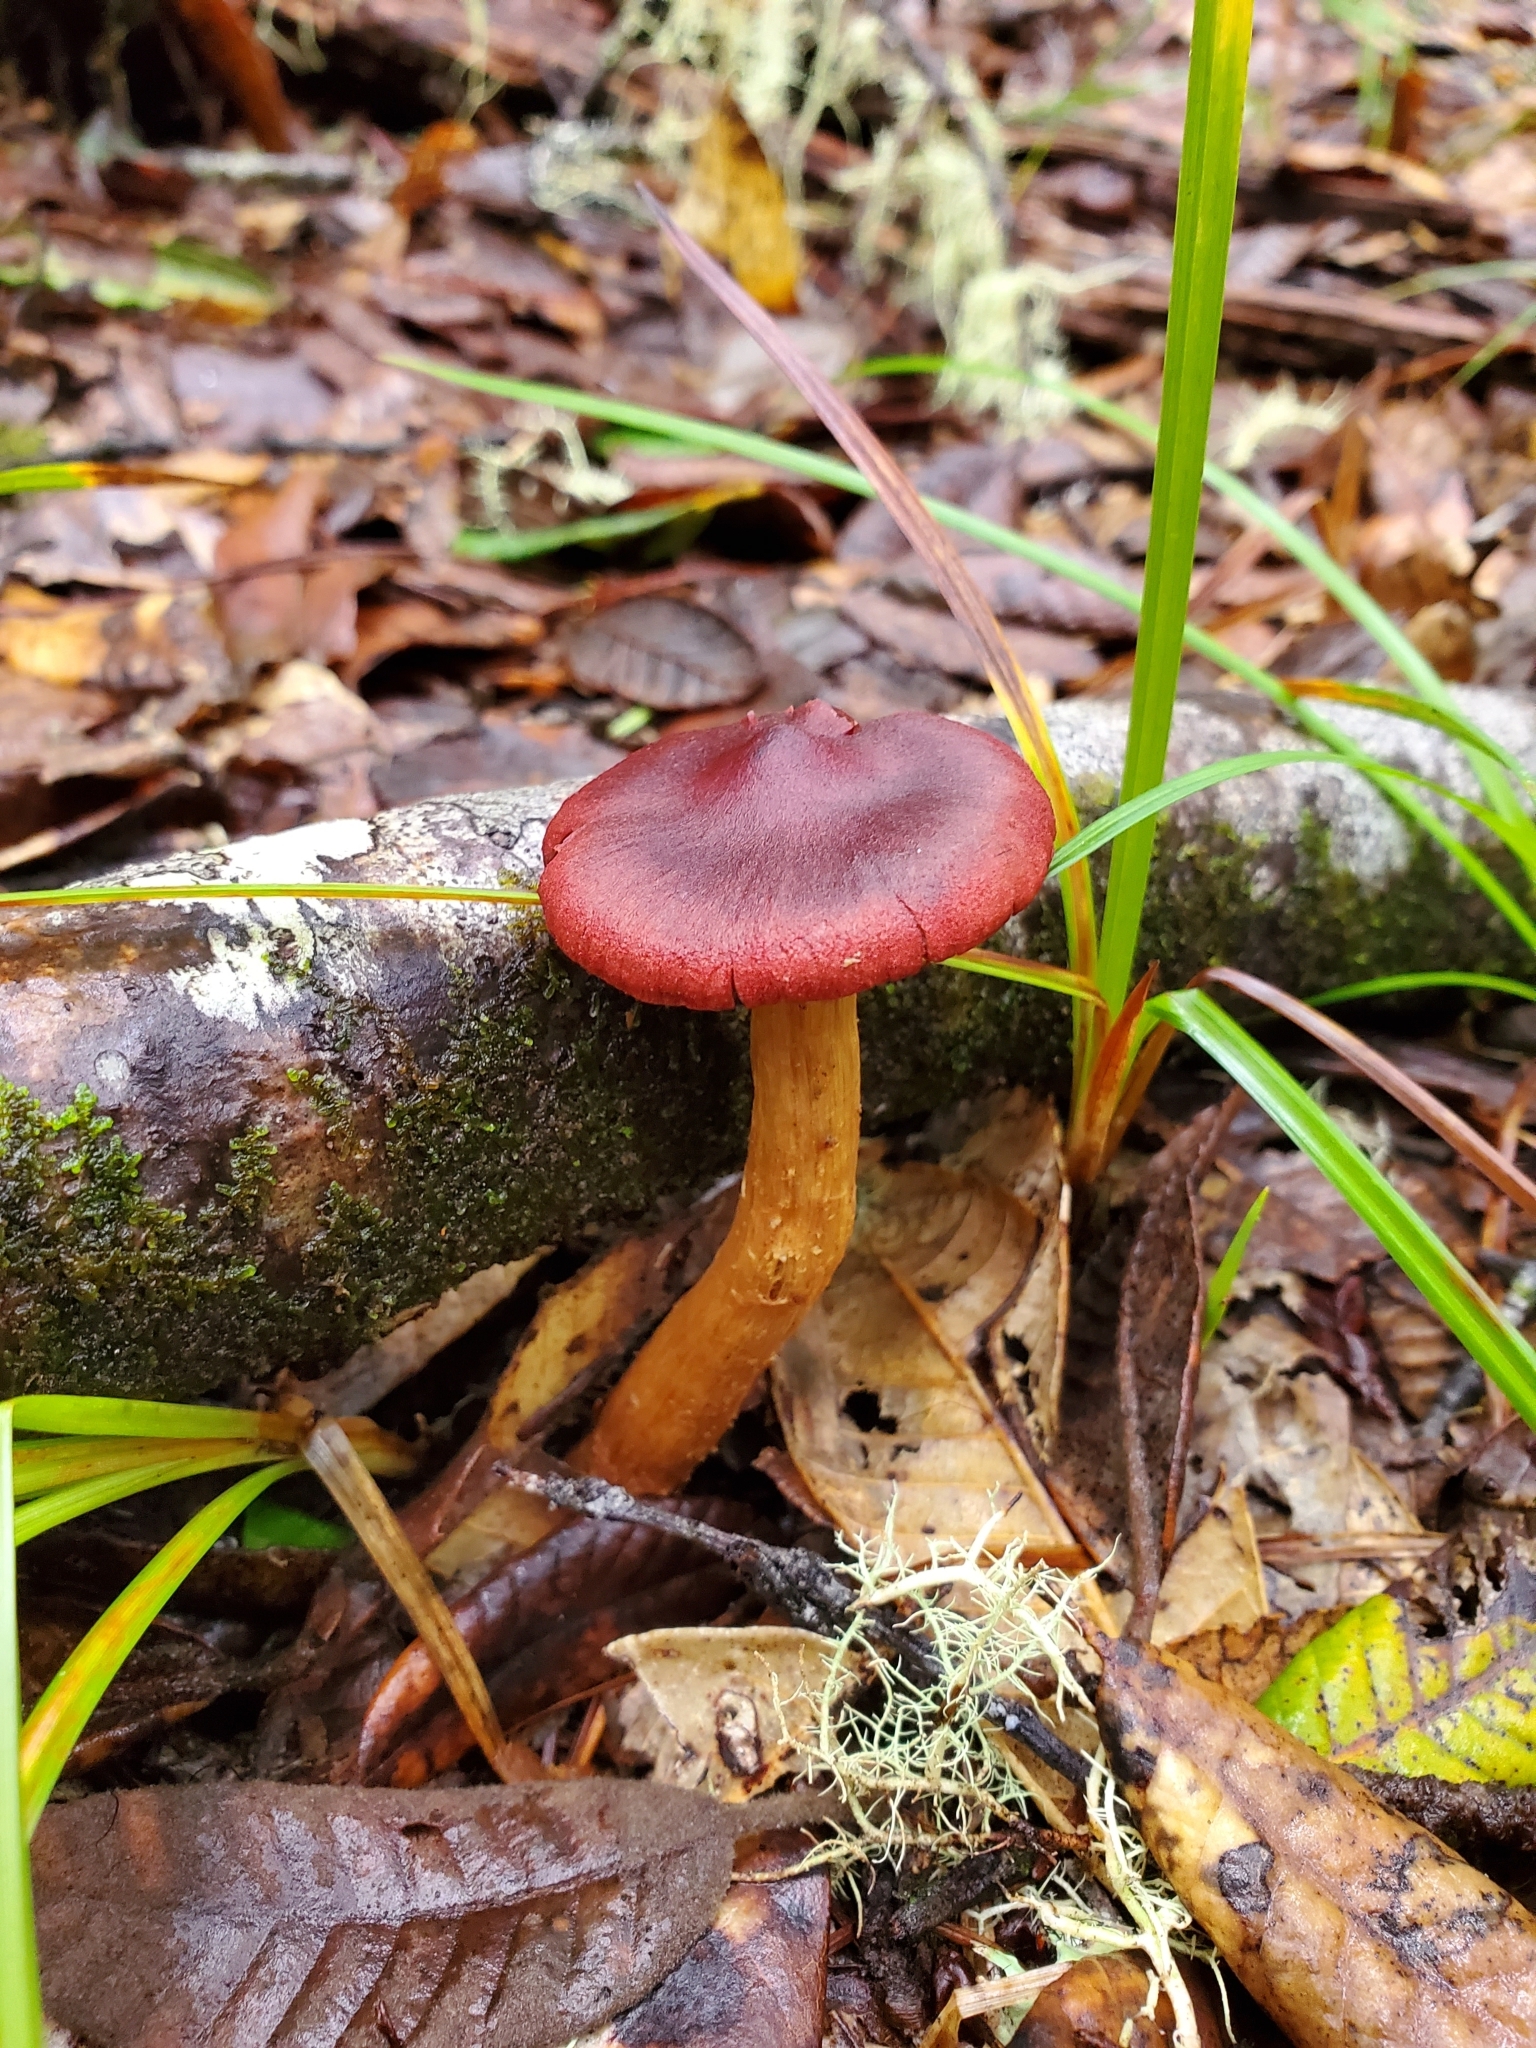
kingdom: Fungi
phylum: Basidiomycota
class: Agaricomycetes
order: Agaricales
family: Cortinariaceae
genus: Cortinarius
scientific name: Cortinarius smithii
